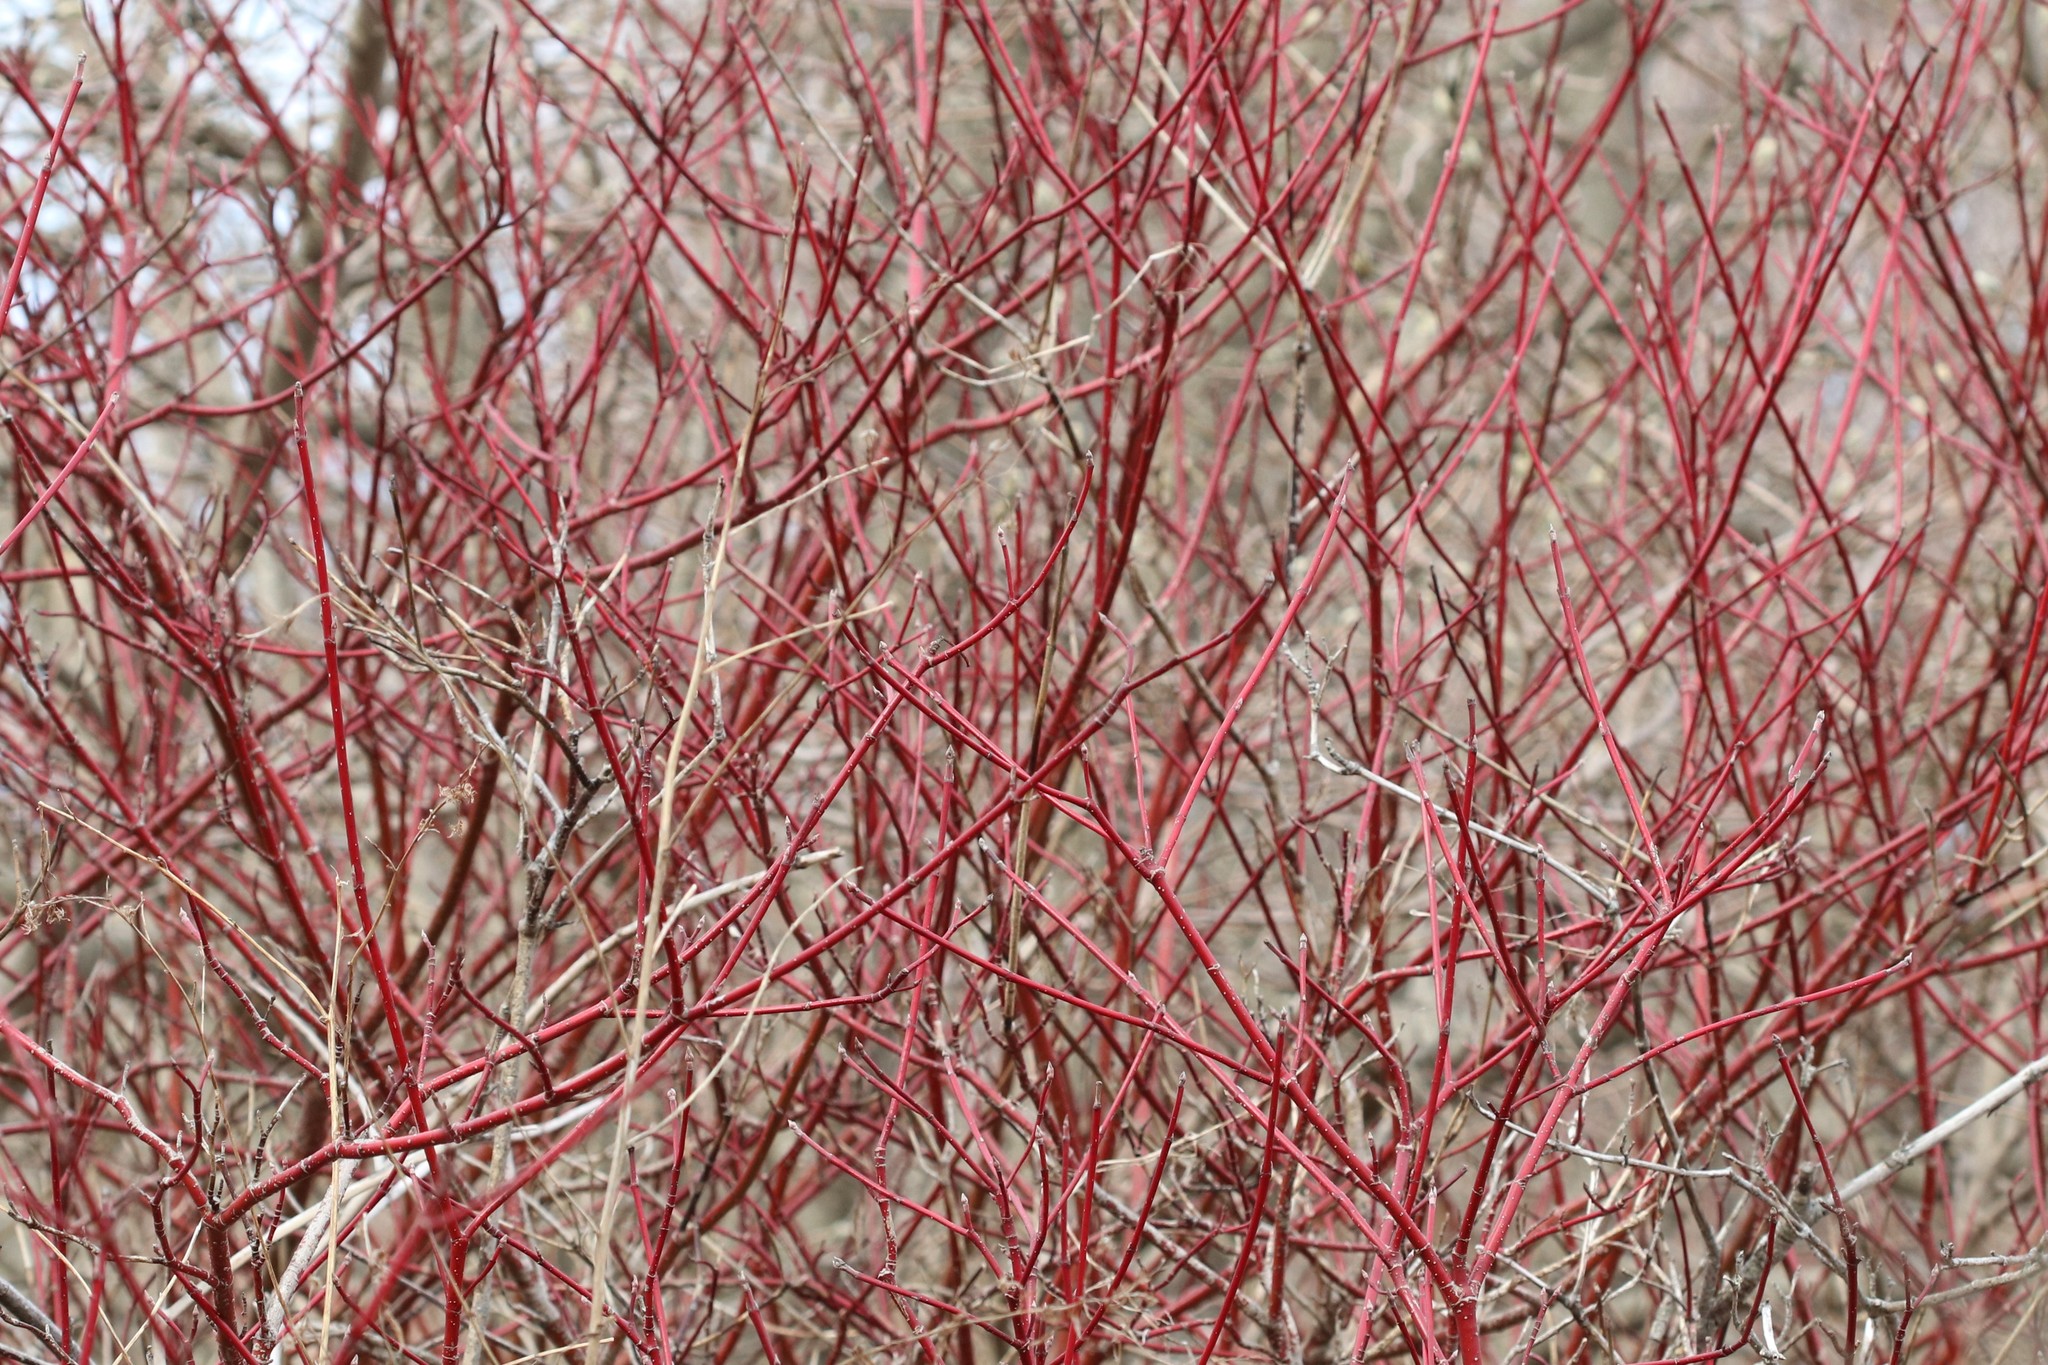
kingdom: Plantae
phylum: Tracheophyta
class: Magnoliopsida
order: Cornales
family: Cornaceae
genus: Cornus
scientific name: Cornus sericea
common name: Red-osier dogwood
